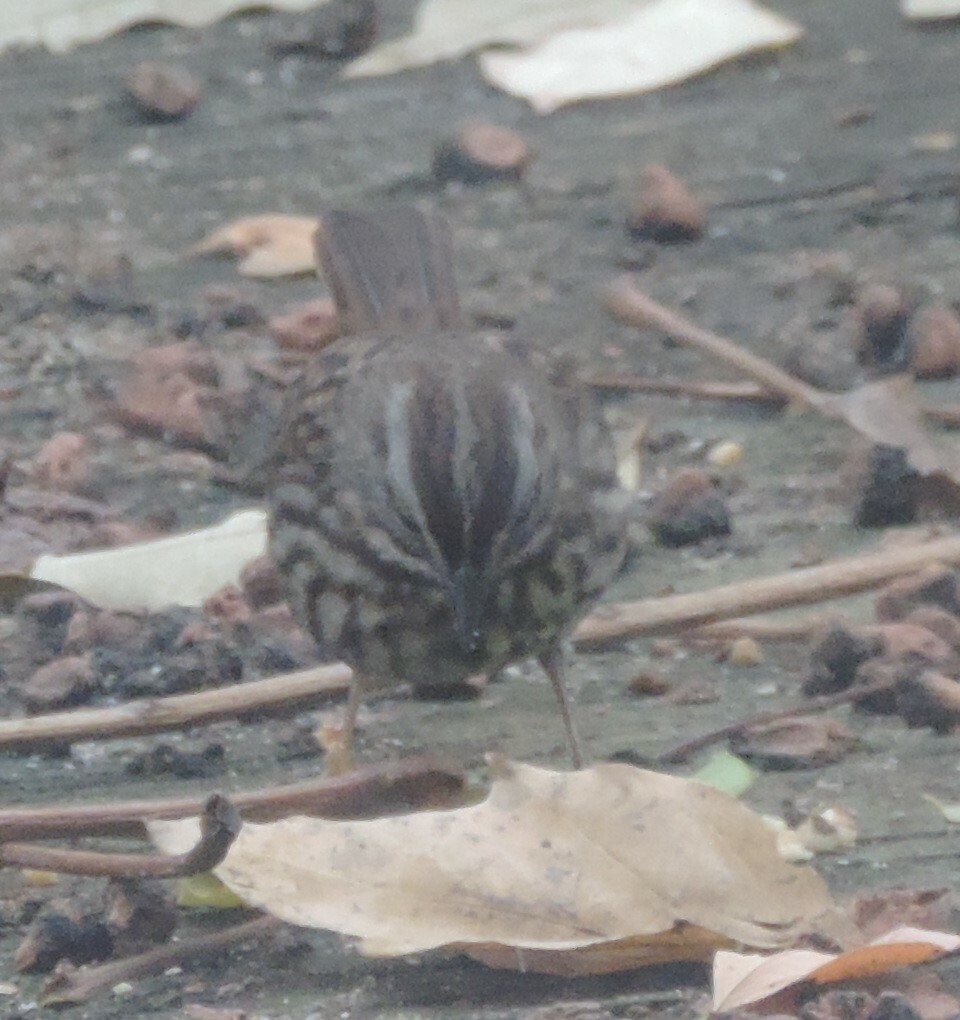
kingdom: Animalia
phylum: Chordata
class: Aves
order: Passeriformes
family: Passerellidae
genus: Melospiza
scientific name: Melospiza melodia
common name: Song sparrow
